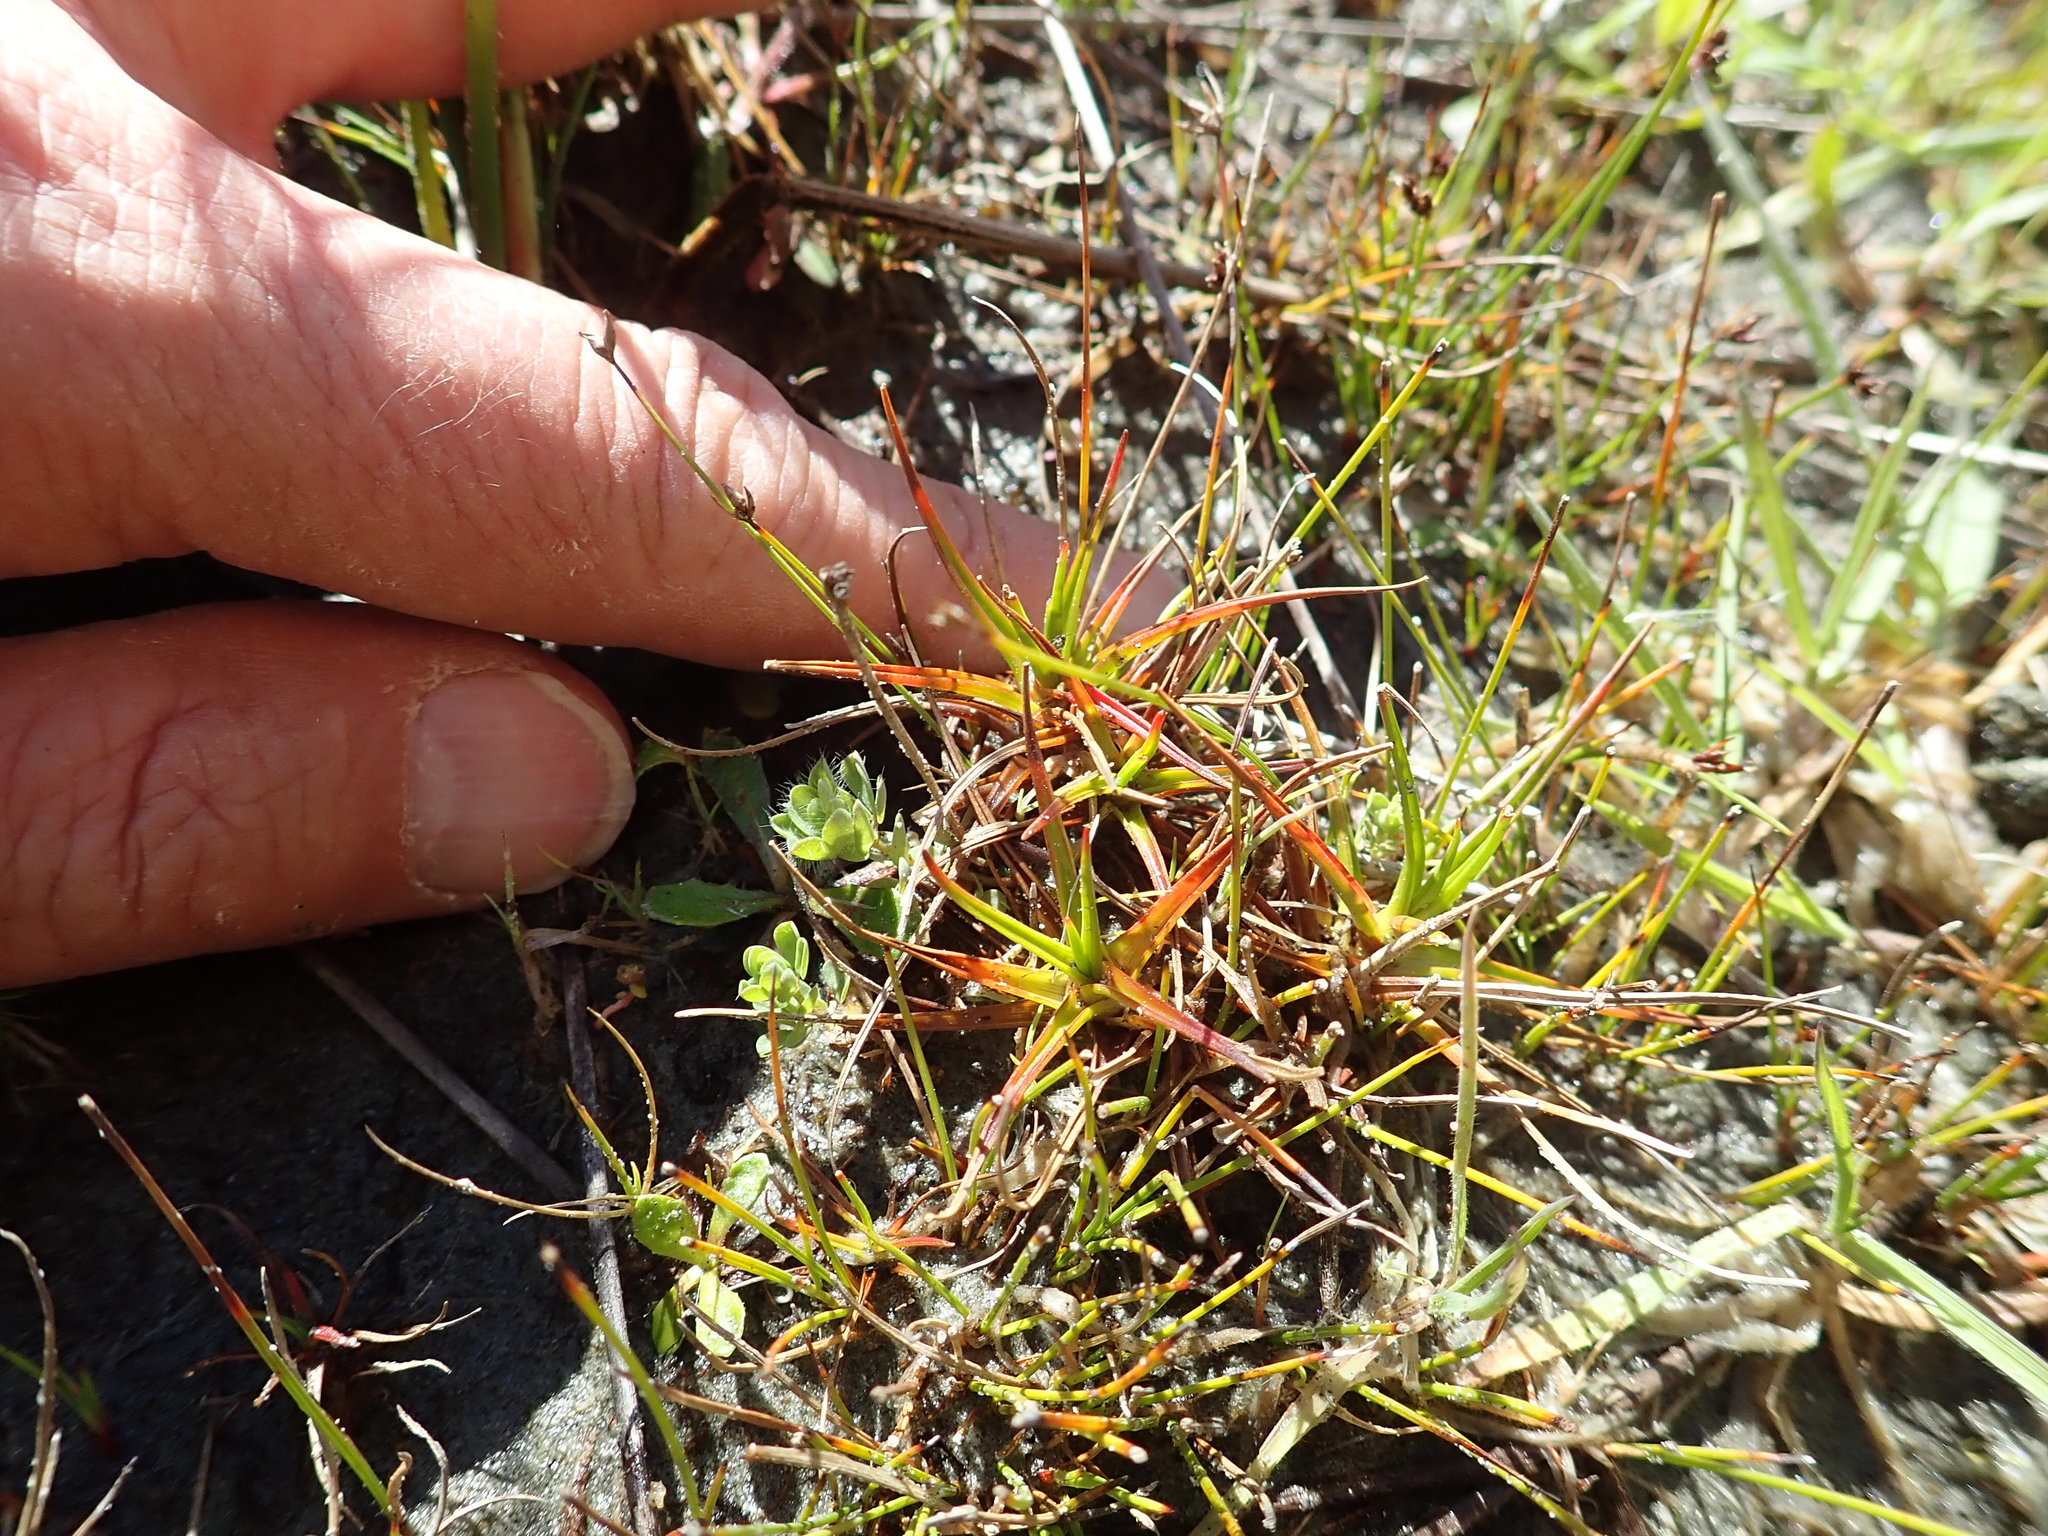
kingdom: Plantae
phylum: Tracheophyta
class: Liliopsida
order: Poales
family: Juncaceae
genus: Juncus
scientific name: Juncus caespiticius
